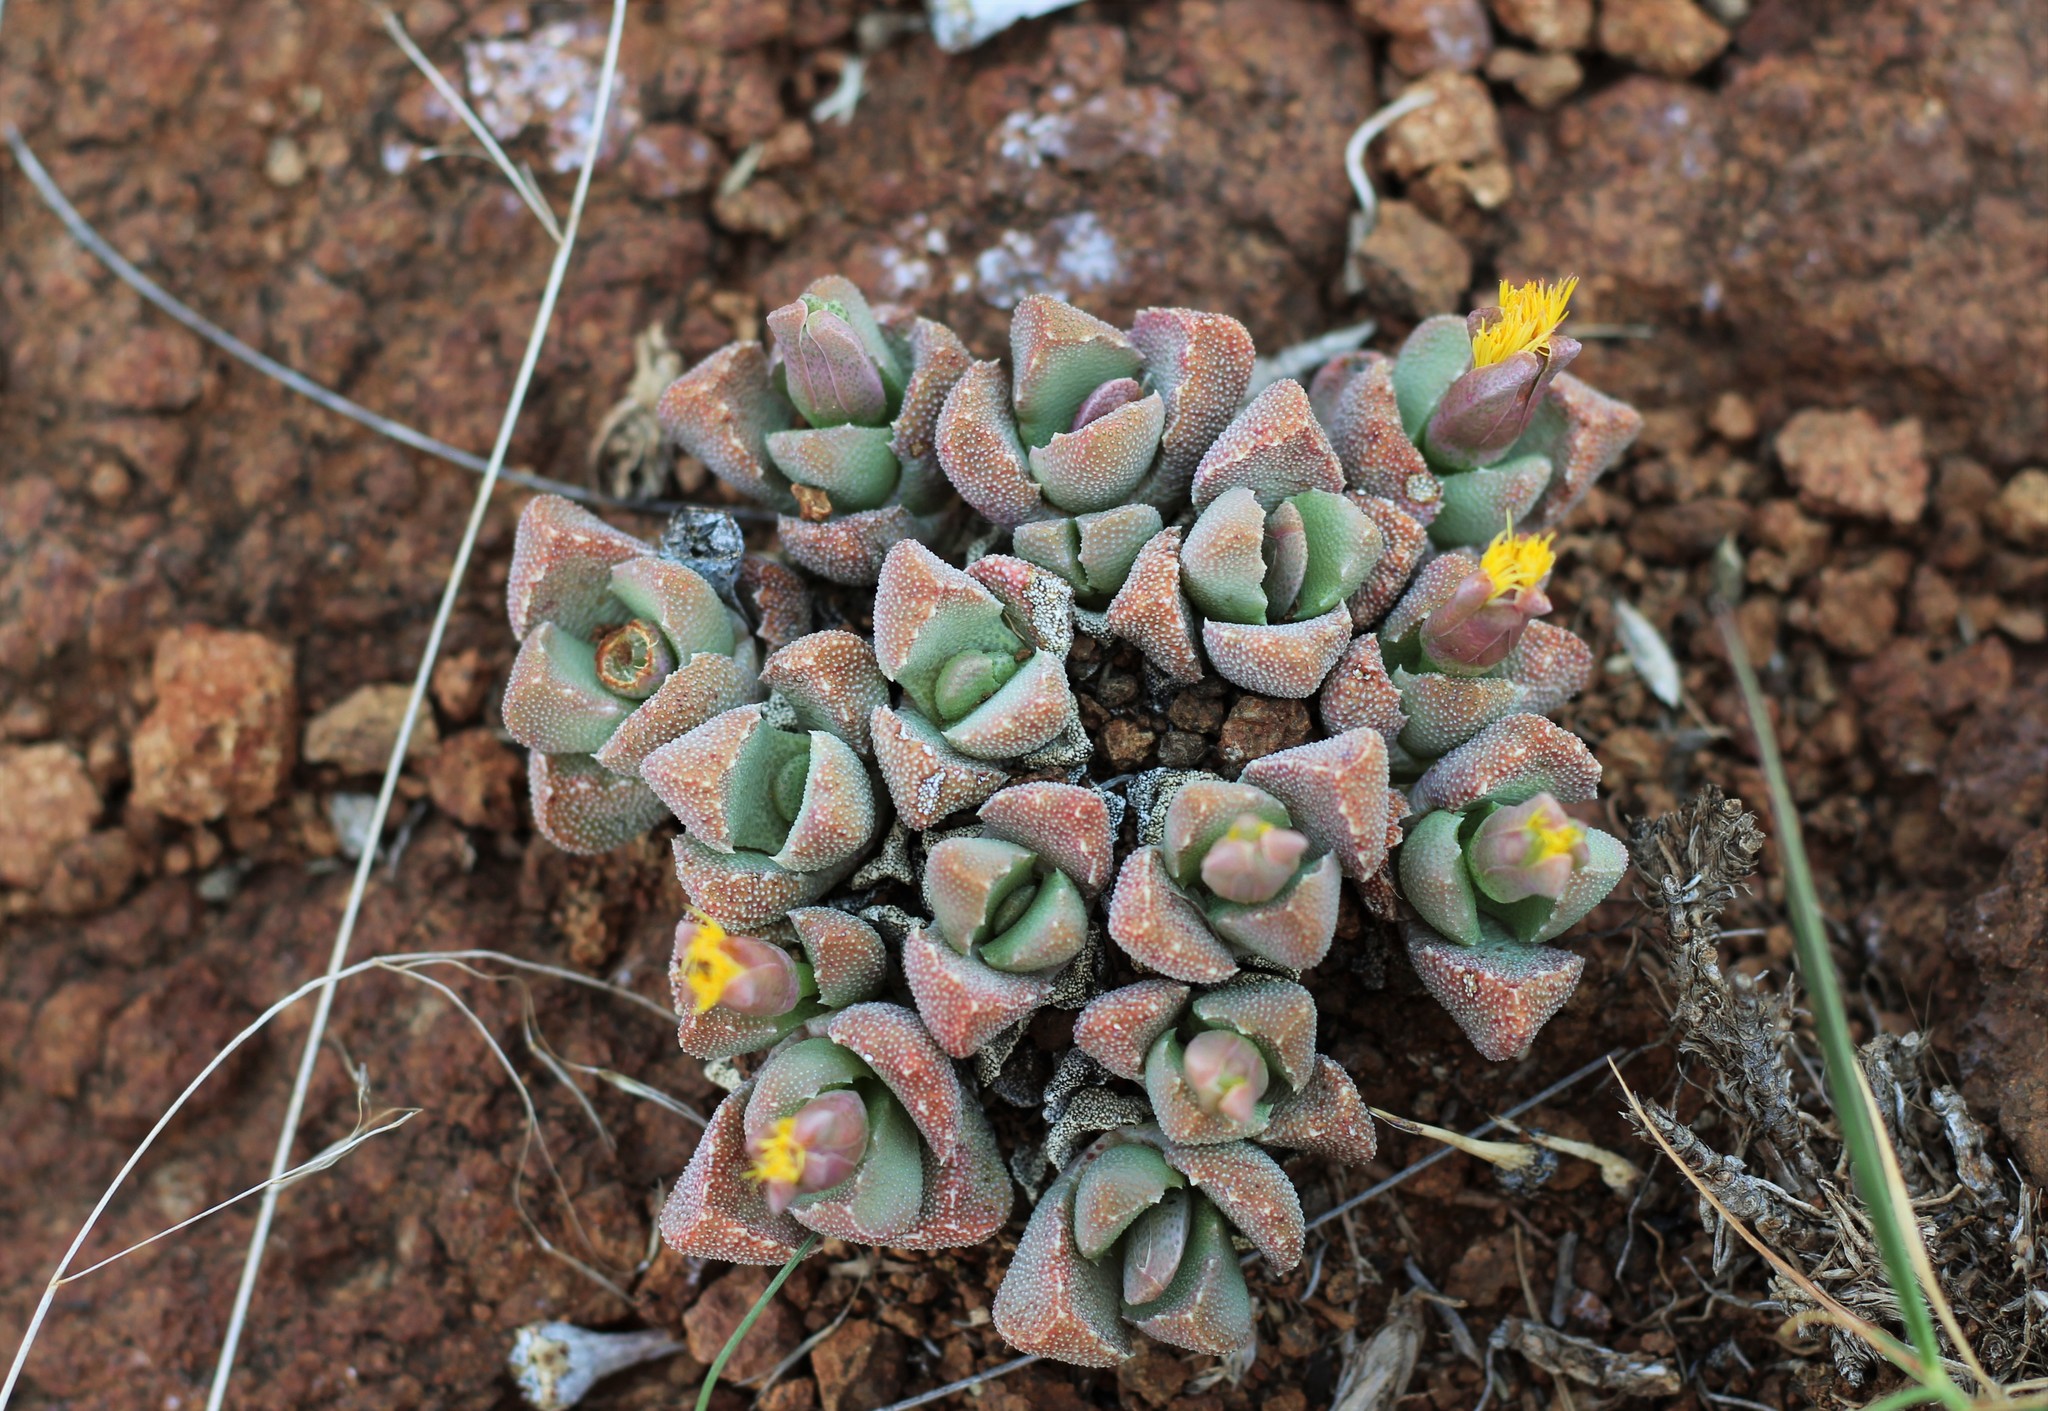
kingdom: Plantae
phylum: Tracheophyta
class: Magnoliopsida
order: Caryophyllales
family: Aizoaceae
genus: Stomatium
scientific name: Stomatium braunsii
